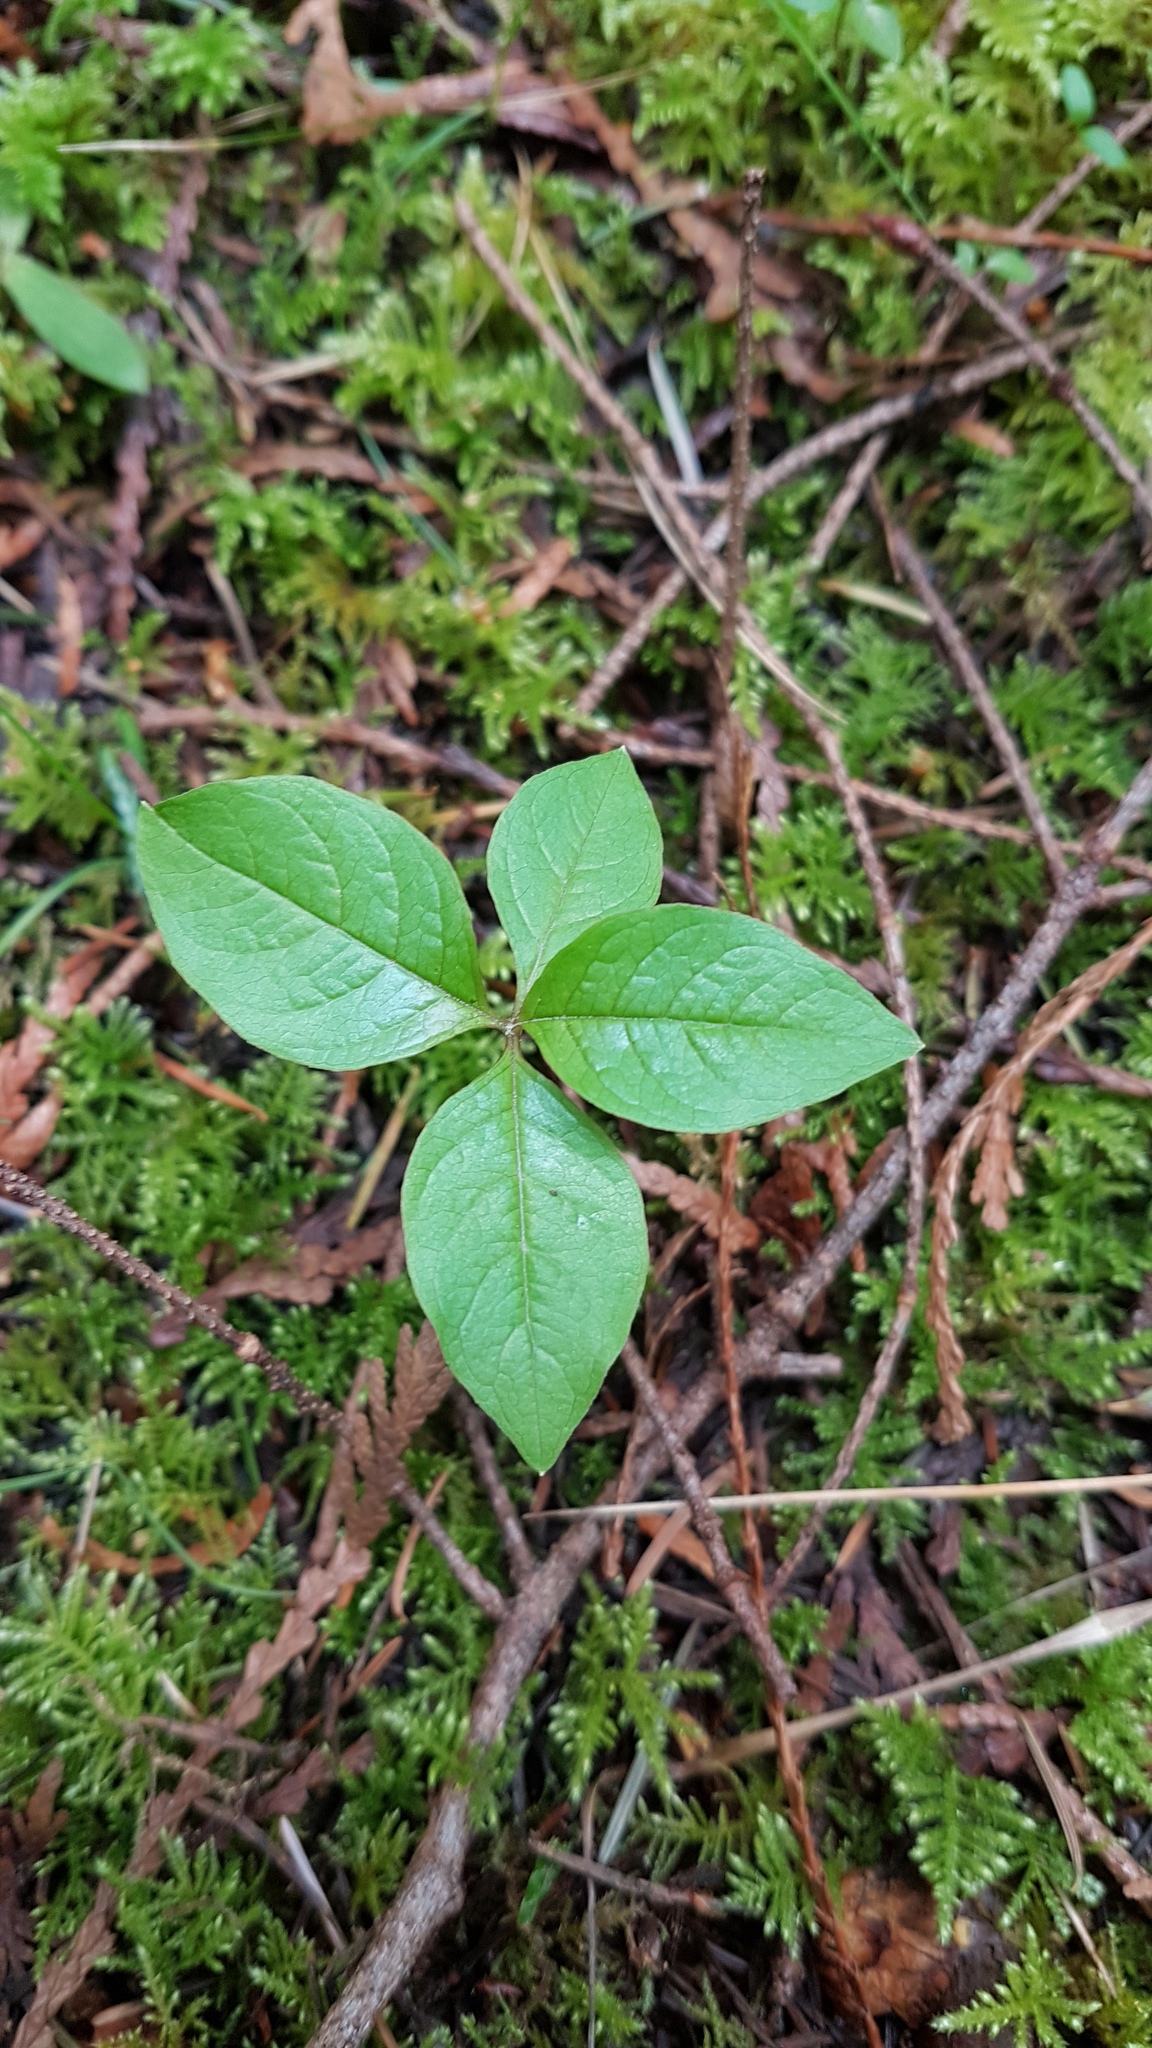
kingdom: Plantae
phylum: Tracheophyta
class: Magnoliopsida
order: Ericales
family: Primulaceae
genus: Lysimachia
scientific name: Lysimachia latifolia
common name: Pacific starflower
